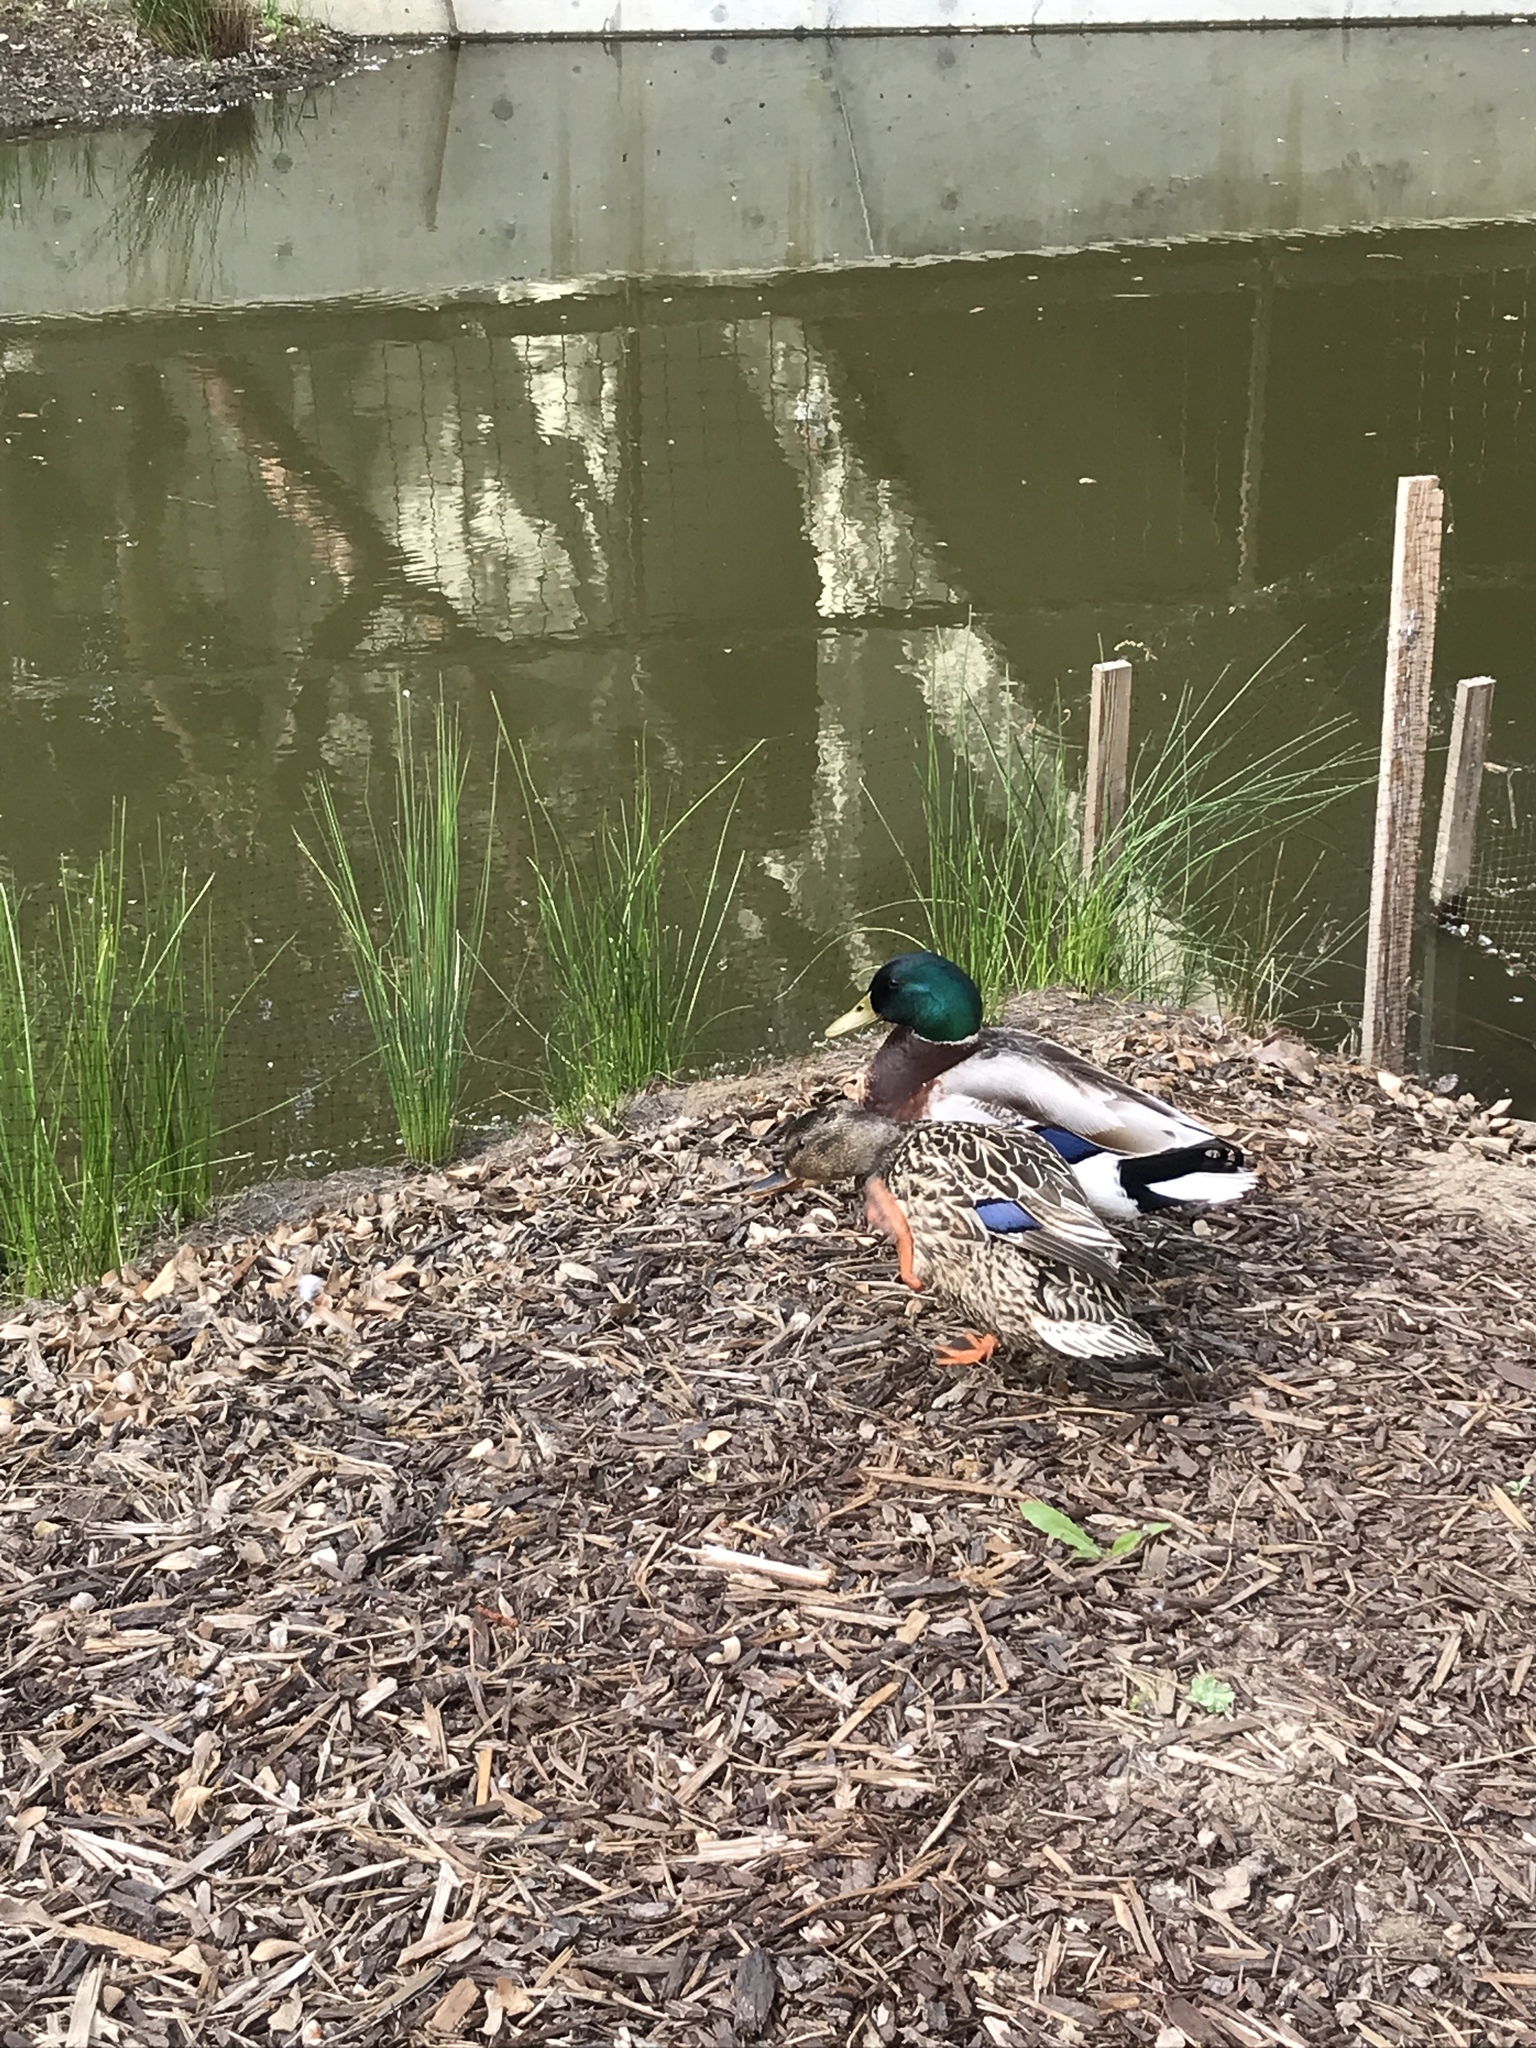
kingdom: Animalia
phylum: Chordata
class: Aves
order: Anseriformes
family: Anatidae
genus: Anas
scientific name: Anas platyrhynchos
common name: Mallard
